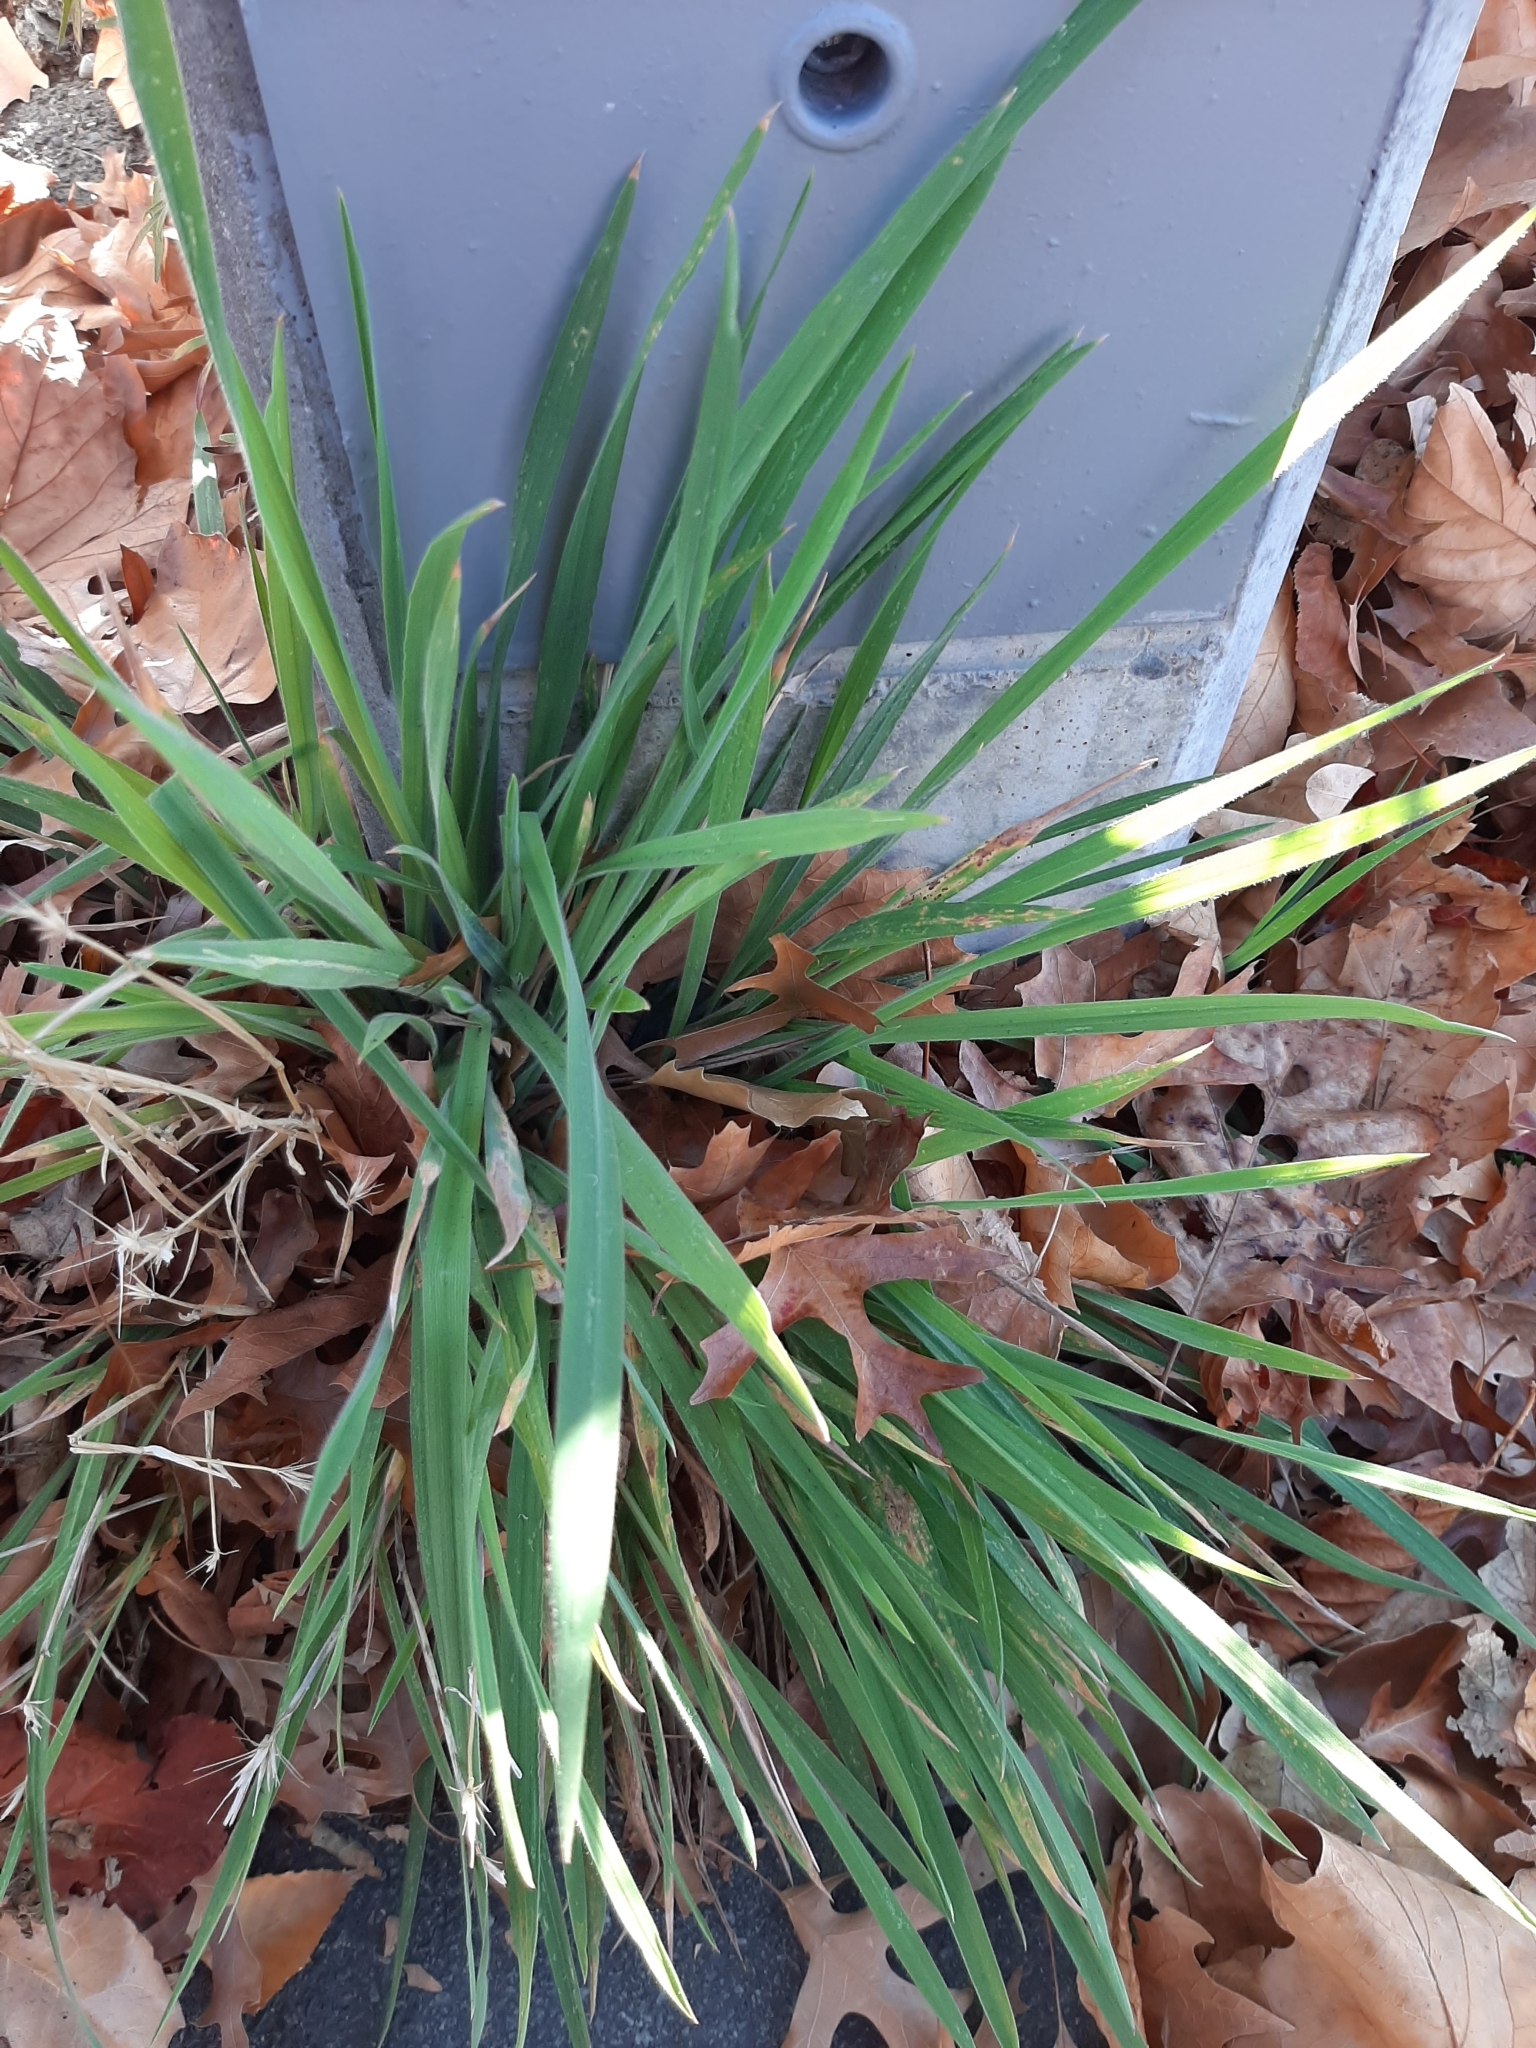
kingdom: Plantae
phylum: Tracheophyta
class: Liliopsida
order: Poales
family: Poaceae
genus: Holcus
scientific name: Holcus lanatus
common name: Yorkshire-fog
